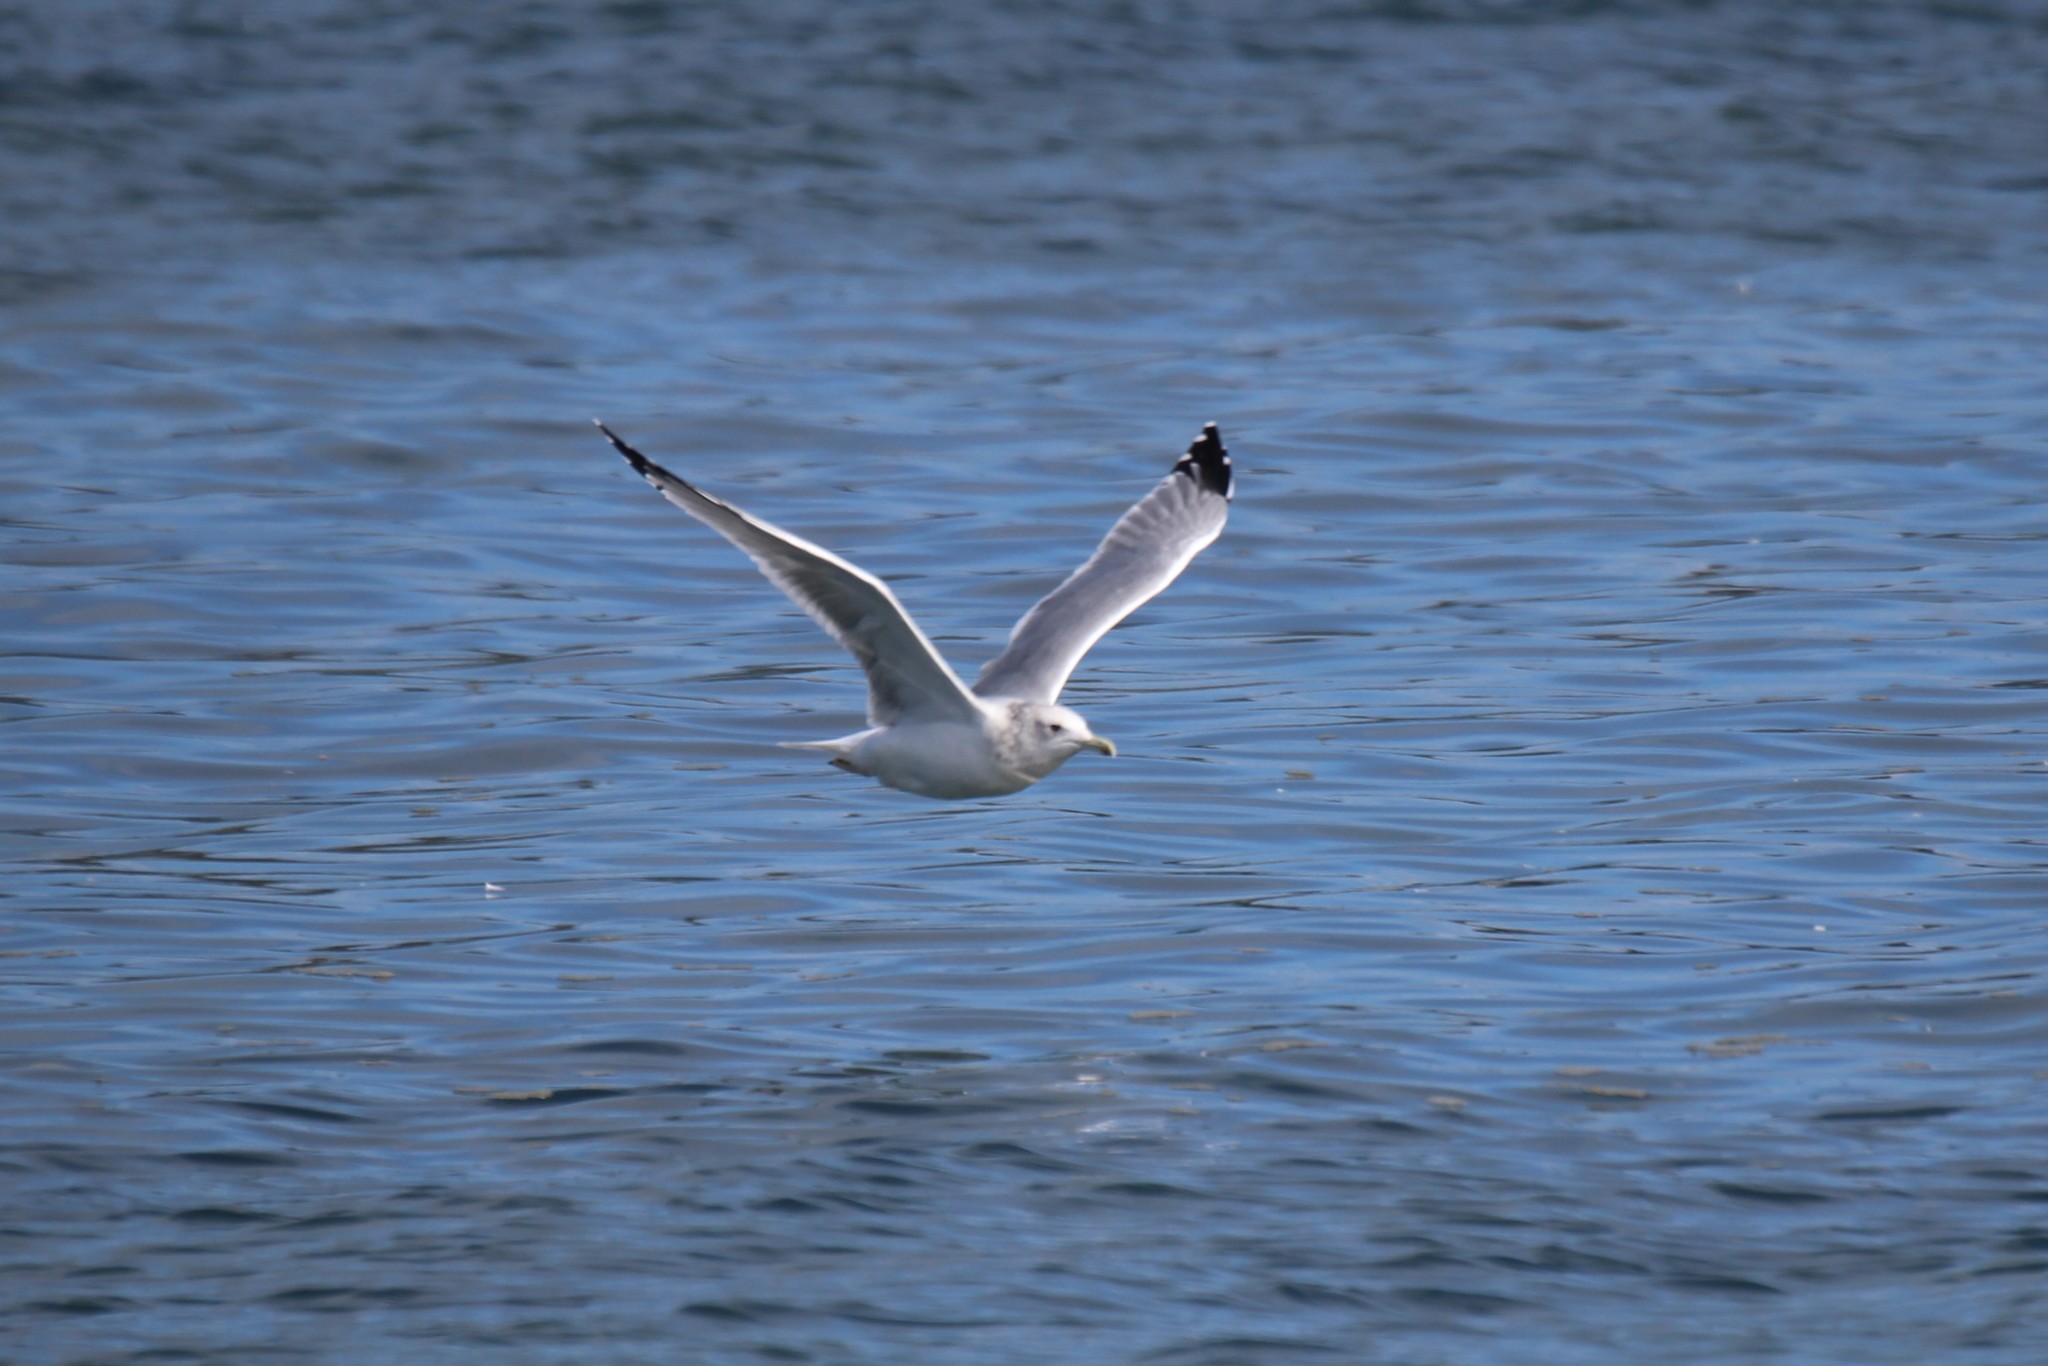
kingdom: Animalia
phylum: Chordata
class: Aves
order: Charadriiformes
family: Laridae
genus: Larus
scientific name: Larus californicus
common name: California gull
